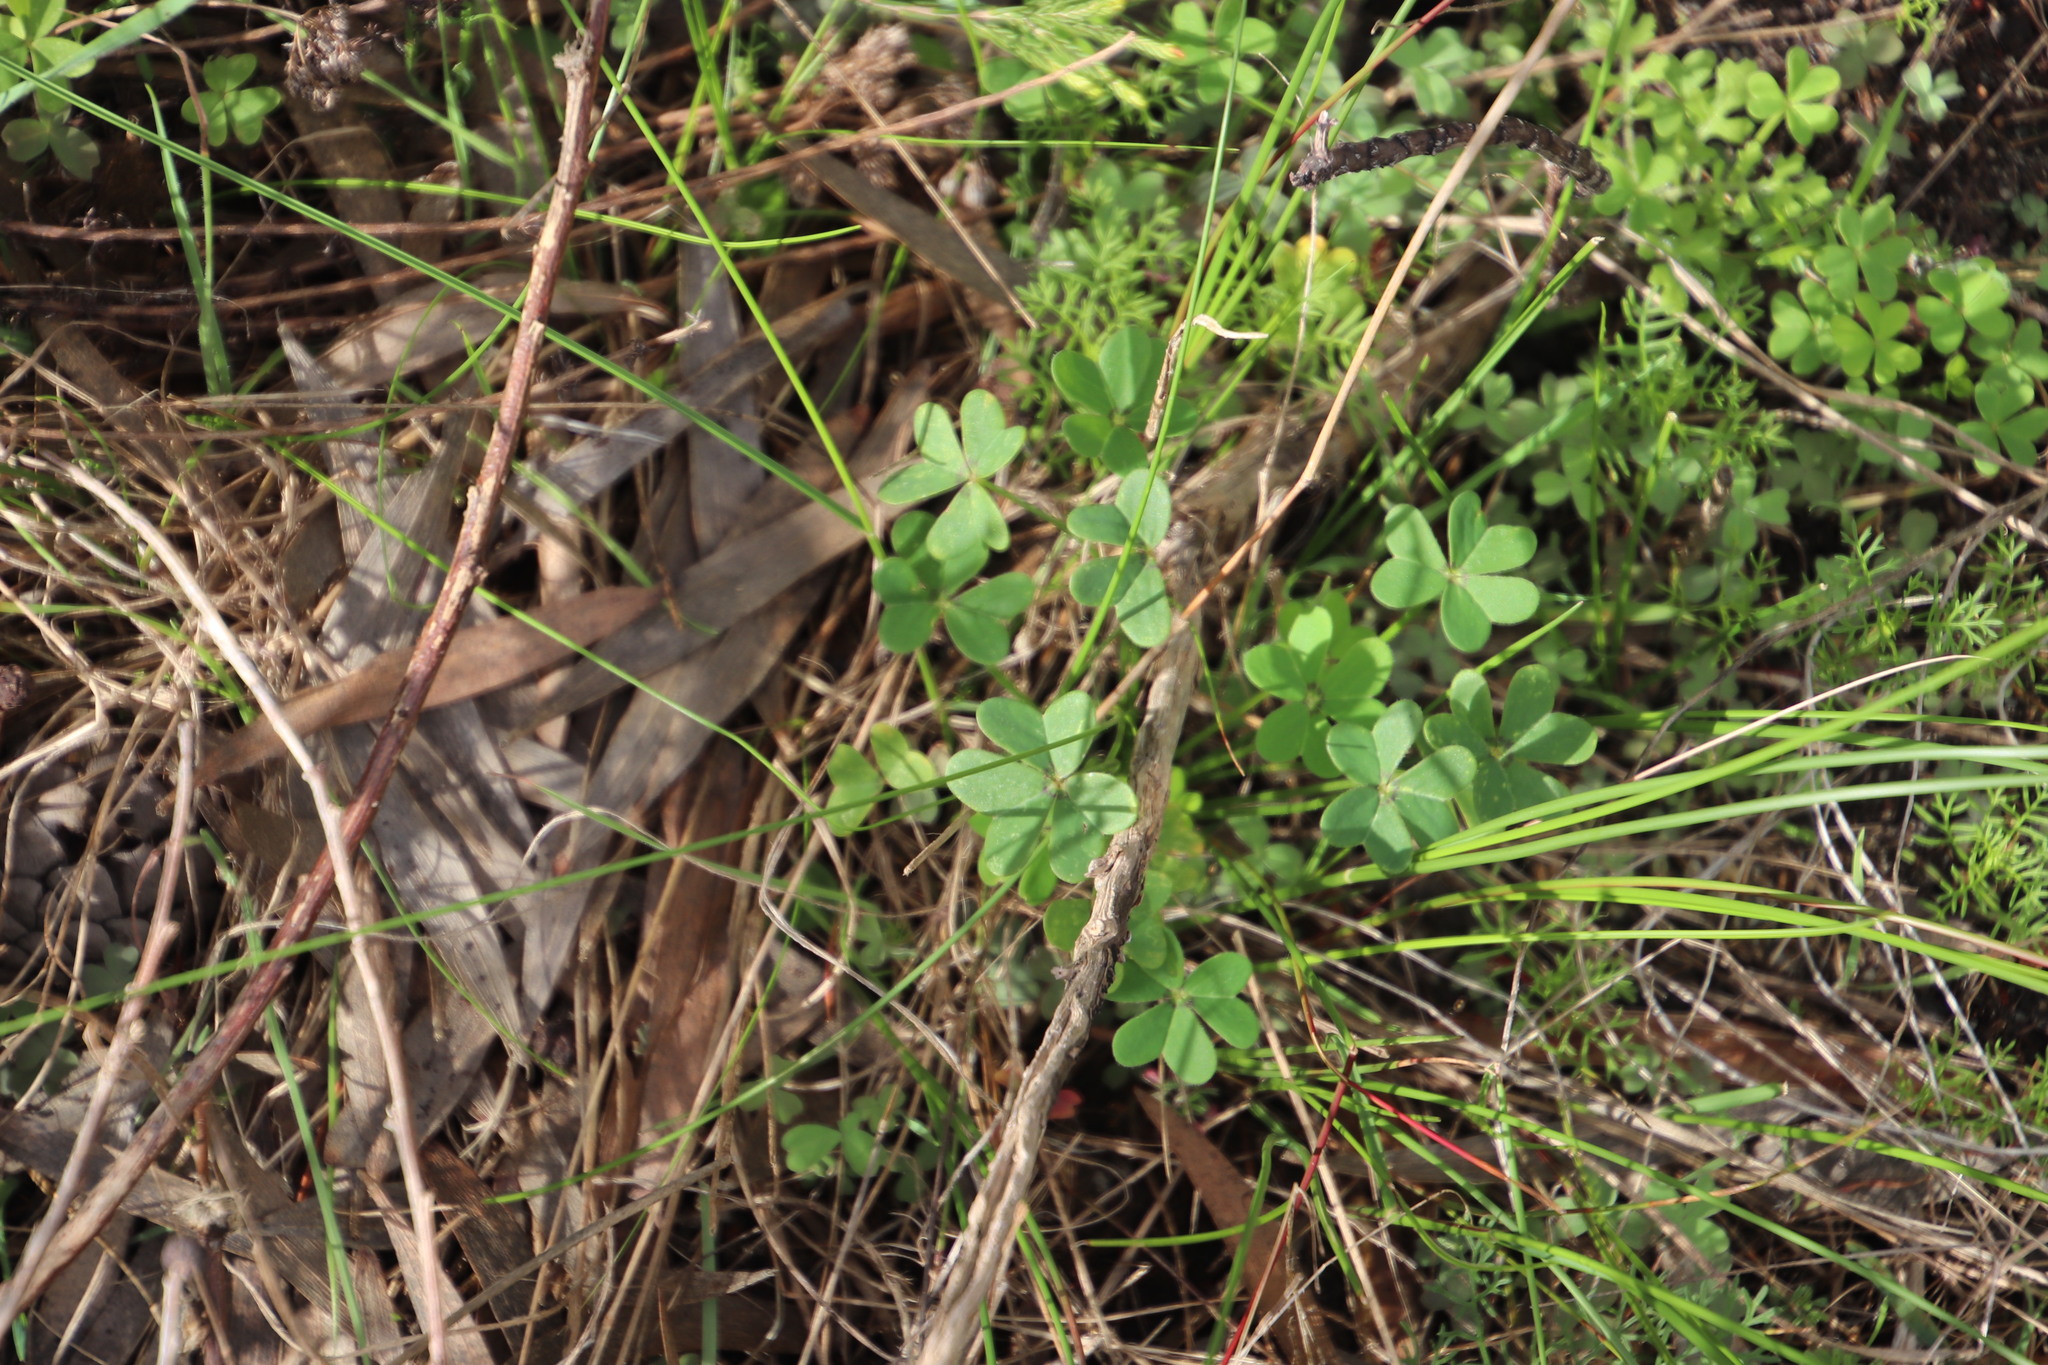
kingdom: Plantae
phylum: Tracheophyta
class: Magnoliopsida
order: Oxalidales
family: Oxalidaceae
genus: Oxalis
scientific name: Oxalis pes-caprae
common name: Bermuda-buttercup
